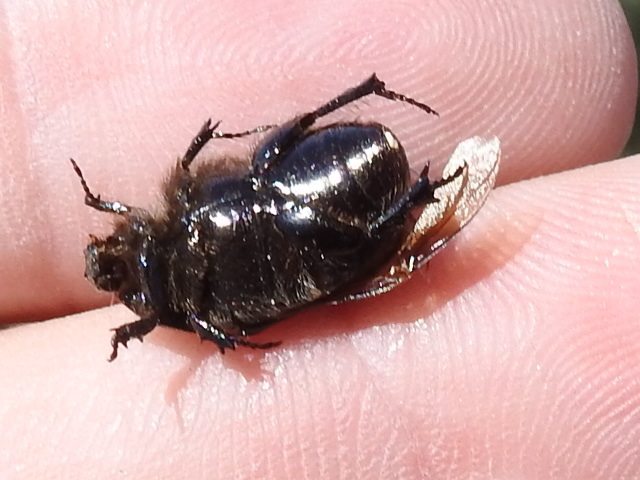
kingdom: Animalia
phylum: Arthropoda
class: Insecta
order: Coleoptera
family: Scarabaeidae
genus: Euphoria
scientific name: Euphoria verticalis
